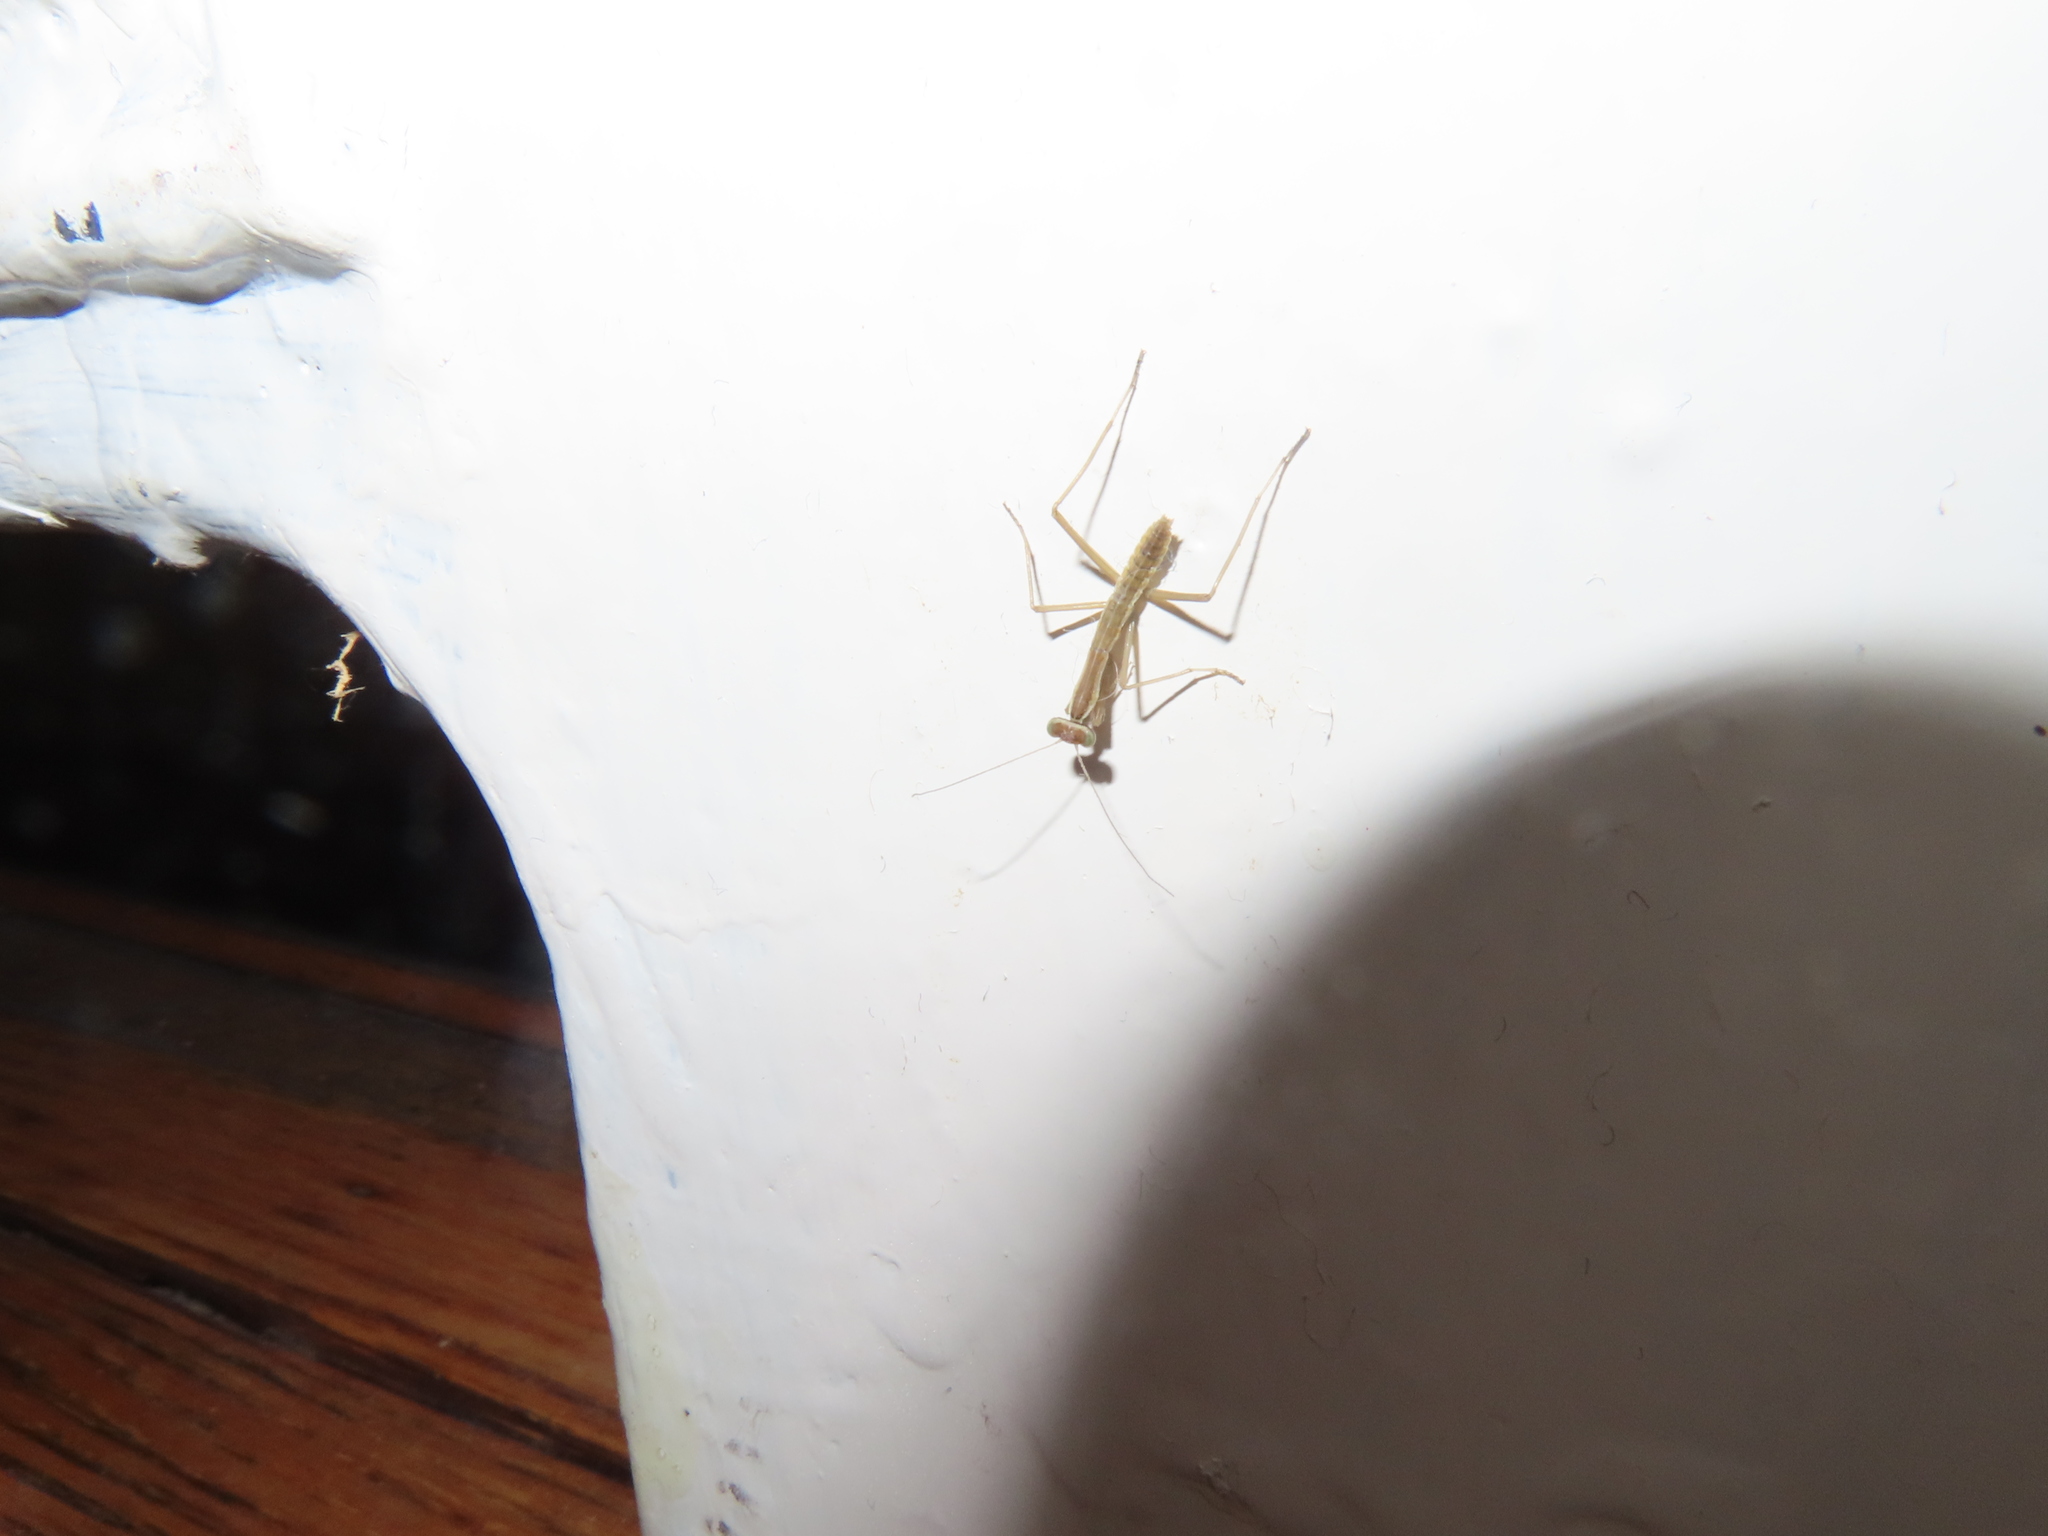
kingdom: Animalia
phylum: Arthropoda
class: Insecta
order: Mantodea
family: Mantidae
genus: Tenodera
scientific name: Tenodera sinensis
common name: Chinese mantis
